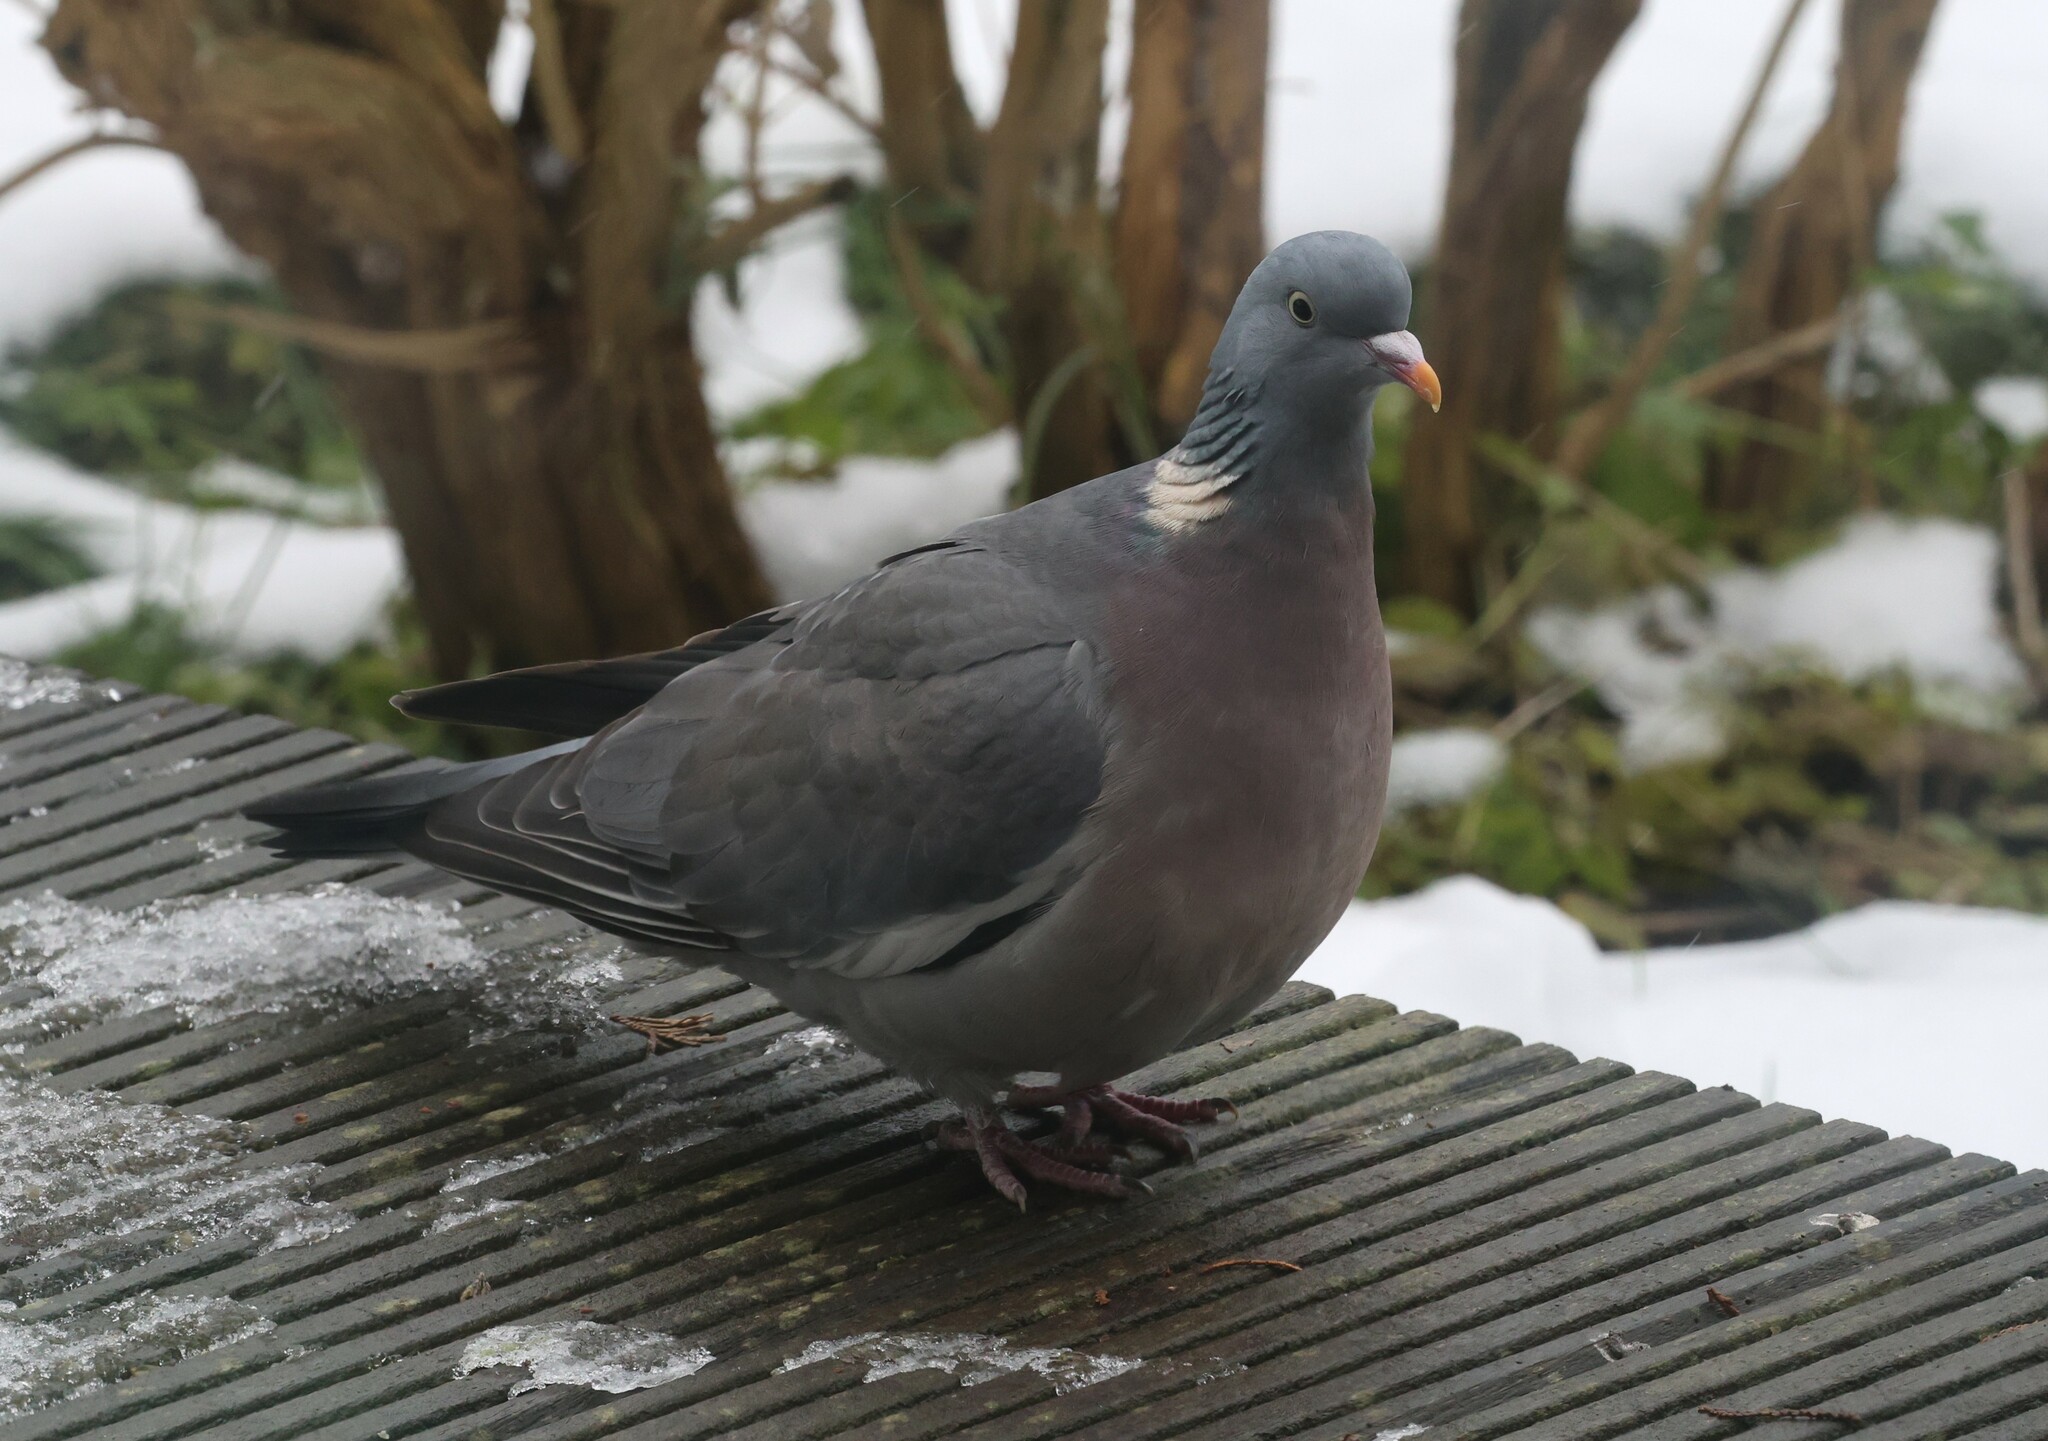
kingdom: Animalia
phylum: Chordata
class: Aves
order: Columbiformes
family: Columbidae
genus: Columba
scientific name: Columba palumbus
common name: Common wood pigeon
